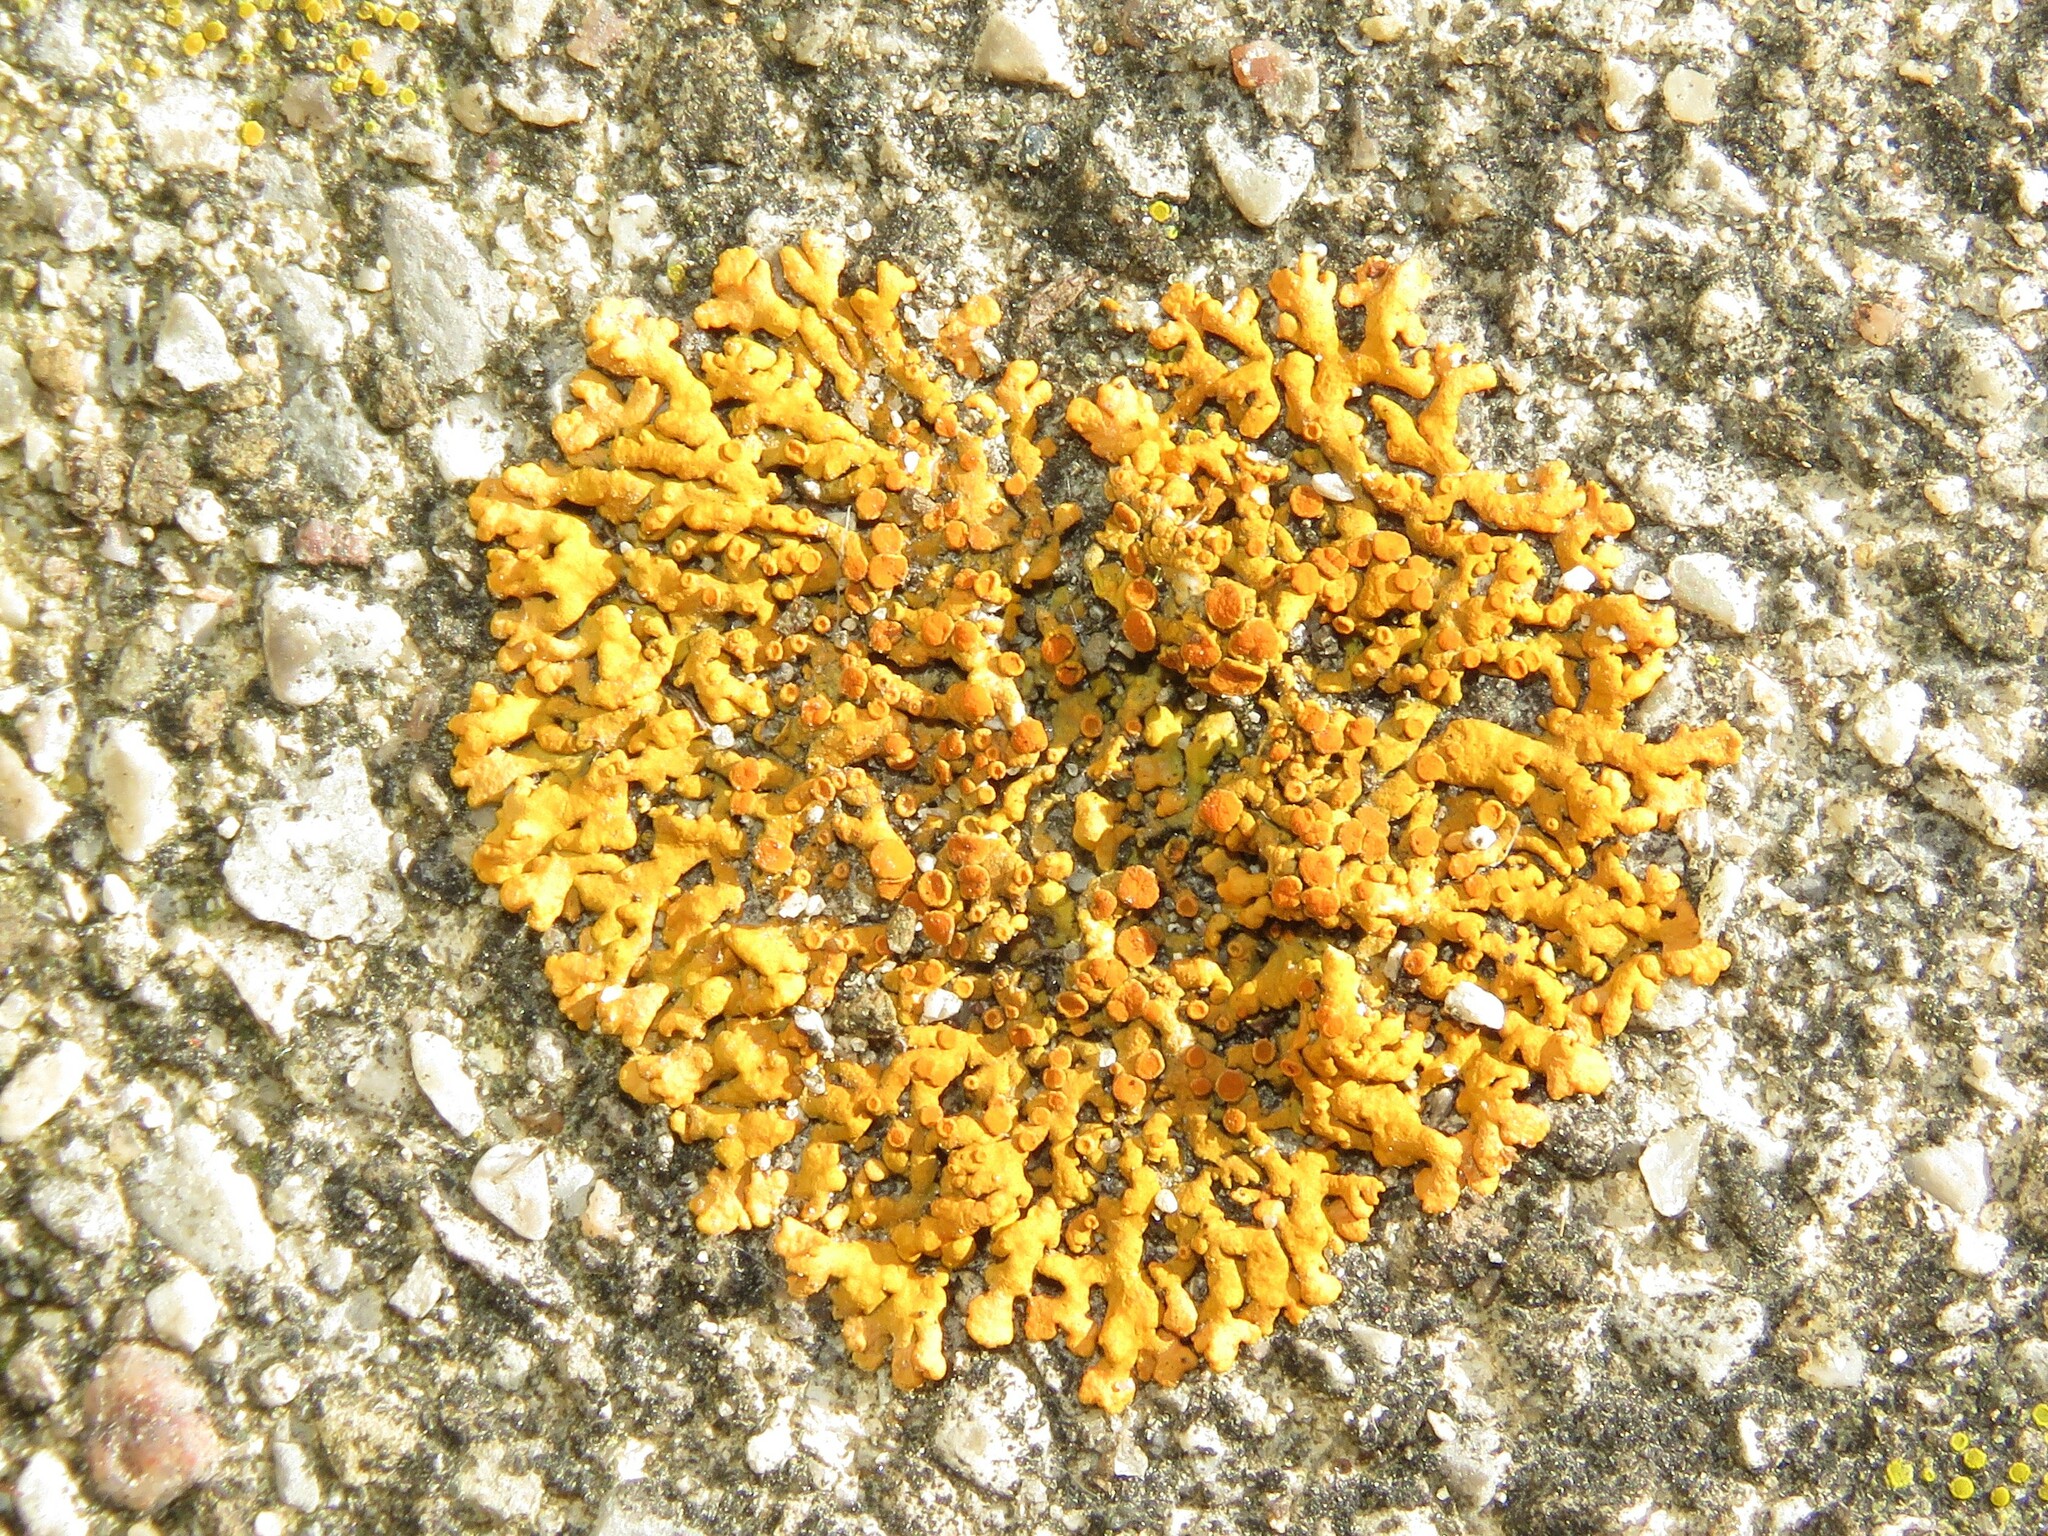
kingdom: Fungi
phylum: Ascomycota
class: Lecanoromycetes
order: Teloschistales
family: Teloschistaceae
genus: Xanthoria
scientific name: Xanthoria elegans
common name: Elegant sunburst lichen
